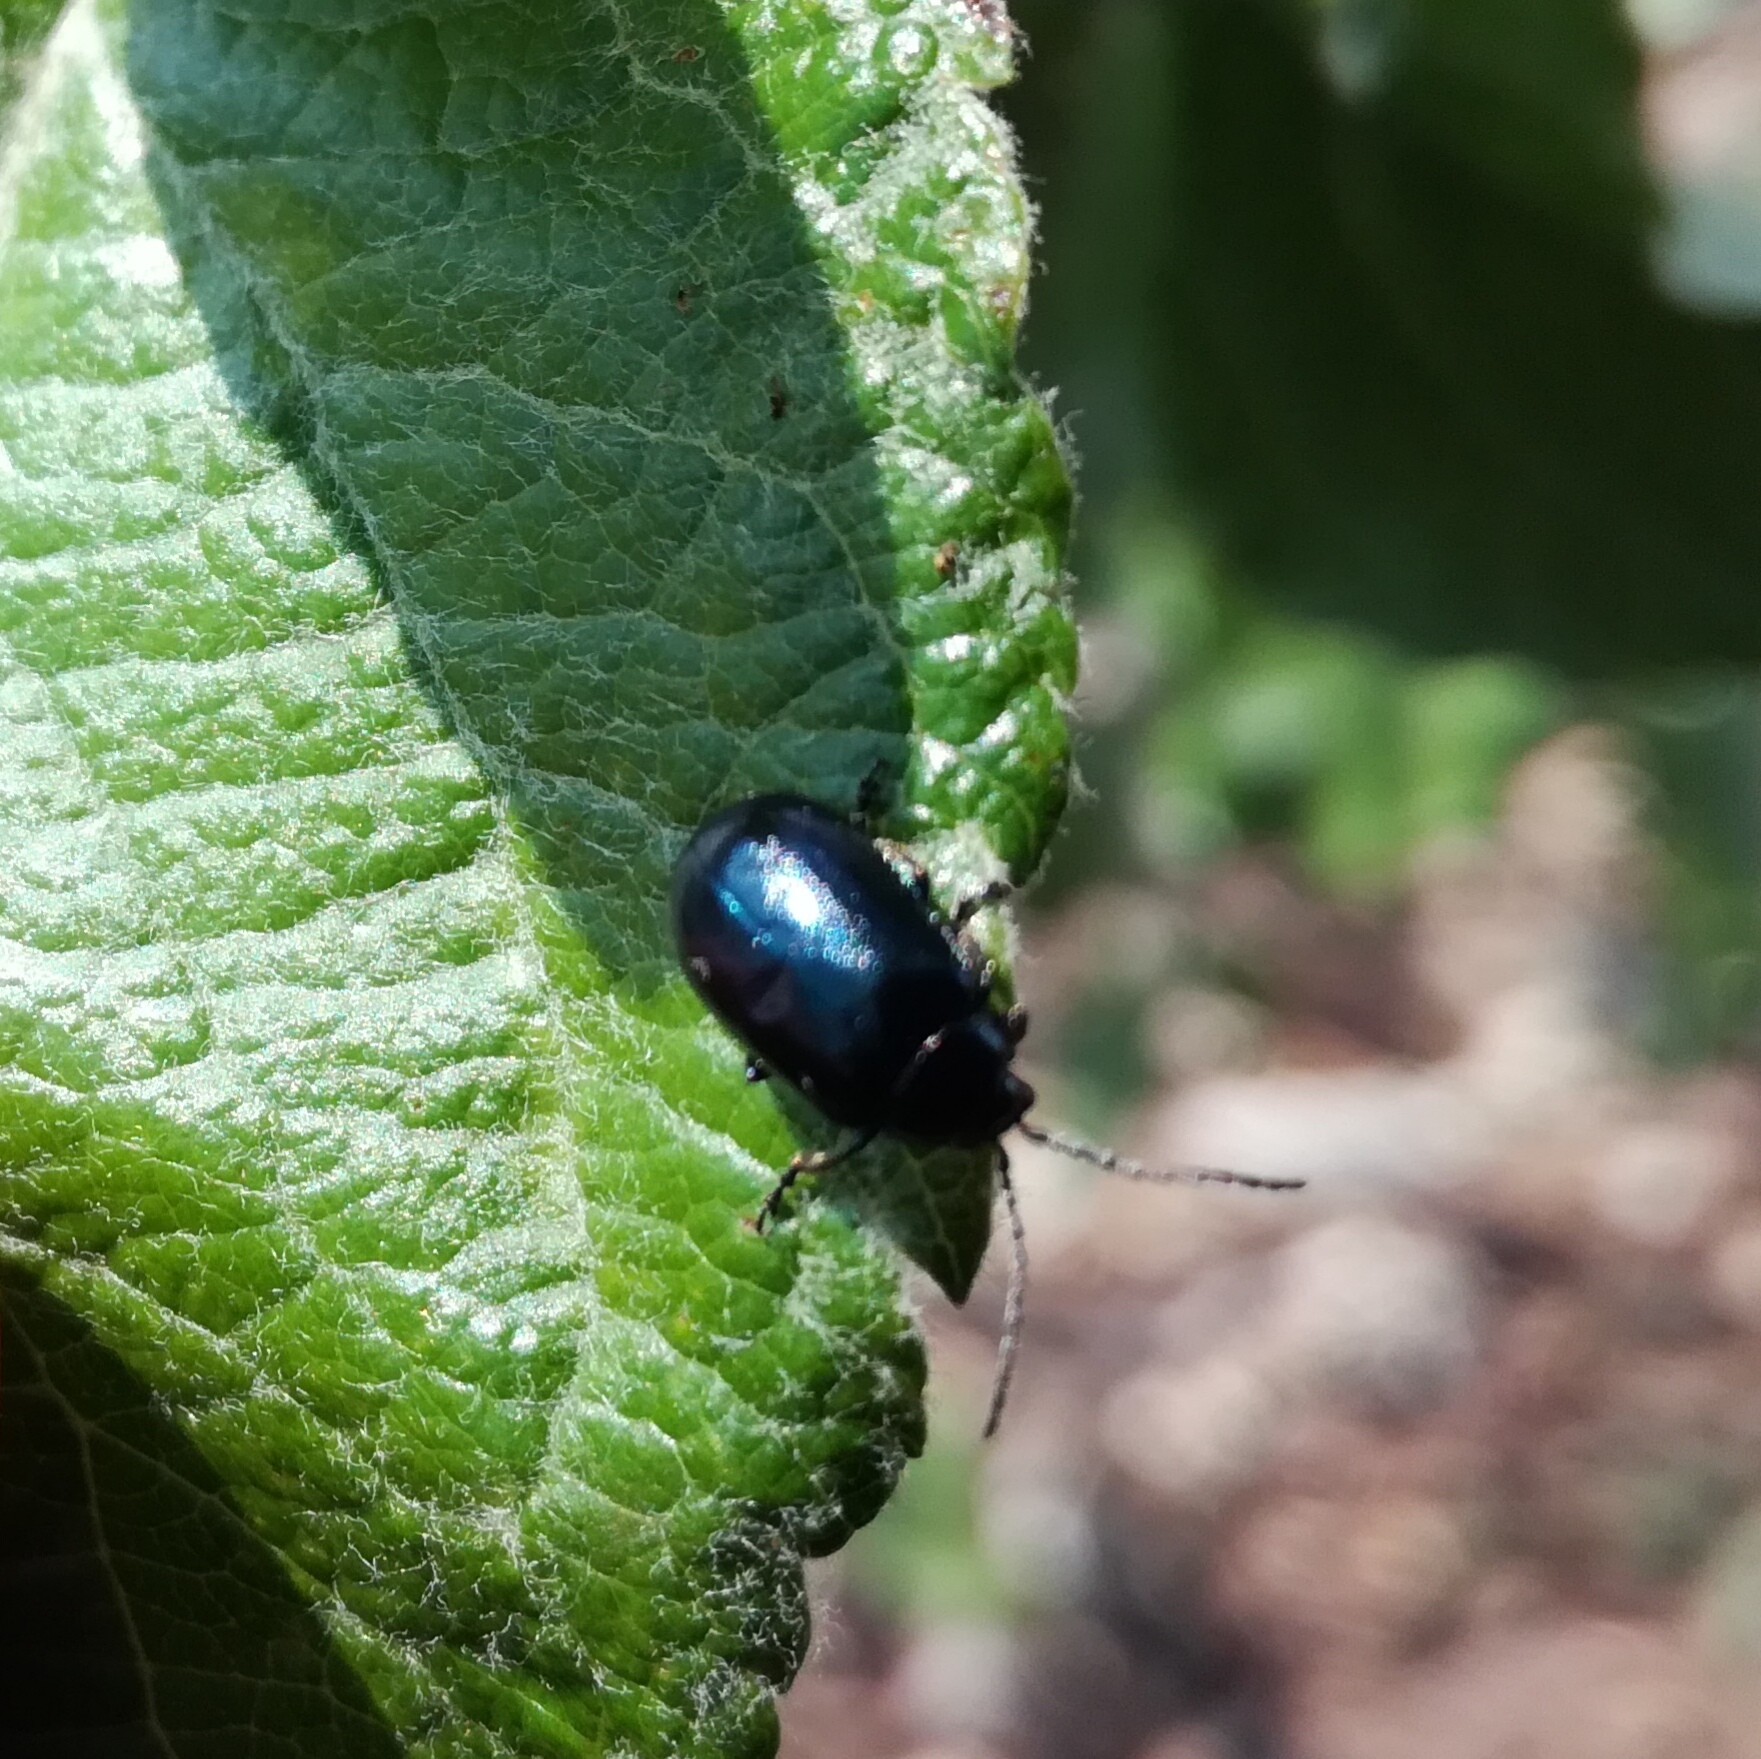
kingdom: Animalia
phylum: Arthropoda
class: Insecta
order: Coleoptera
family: Chrysomelidae
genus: Agelastica
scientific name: Agelastica alni
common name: Alder leaf beetle
